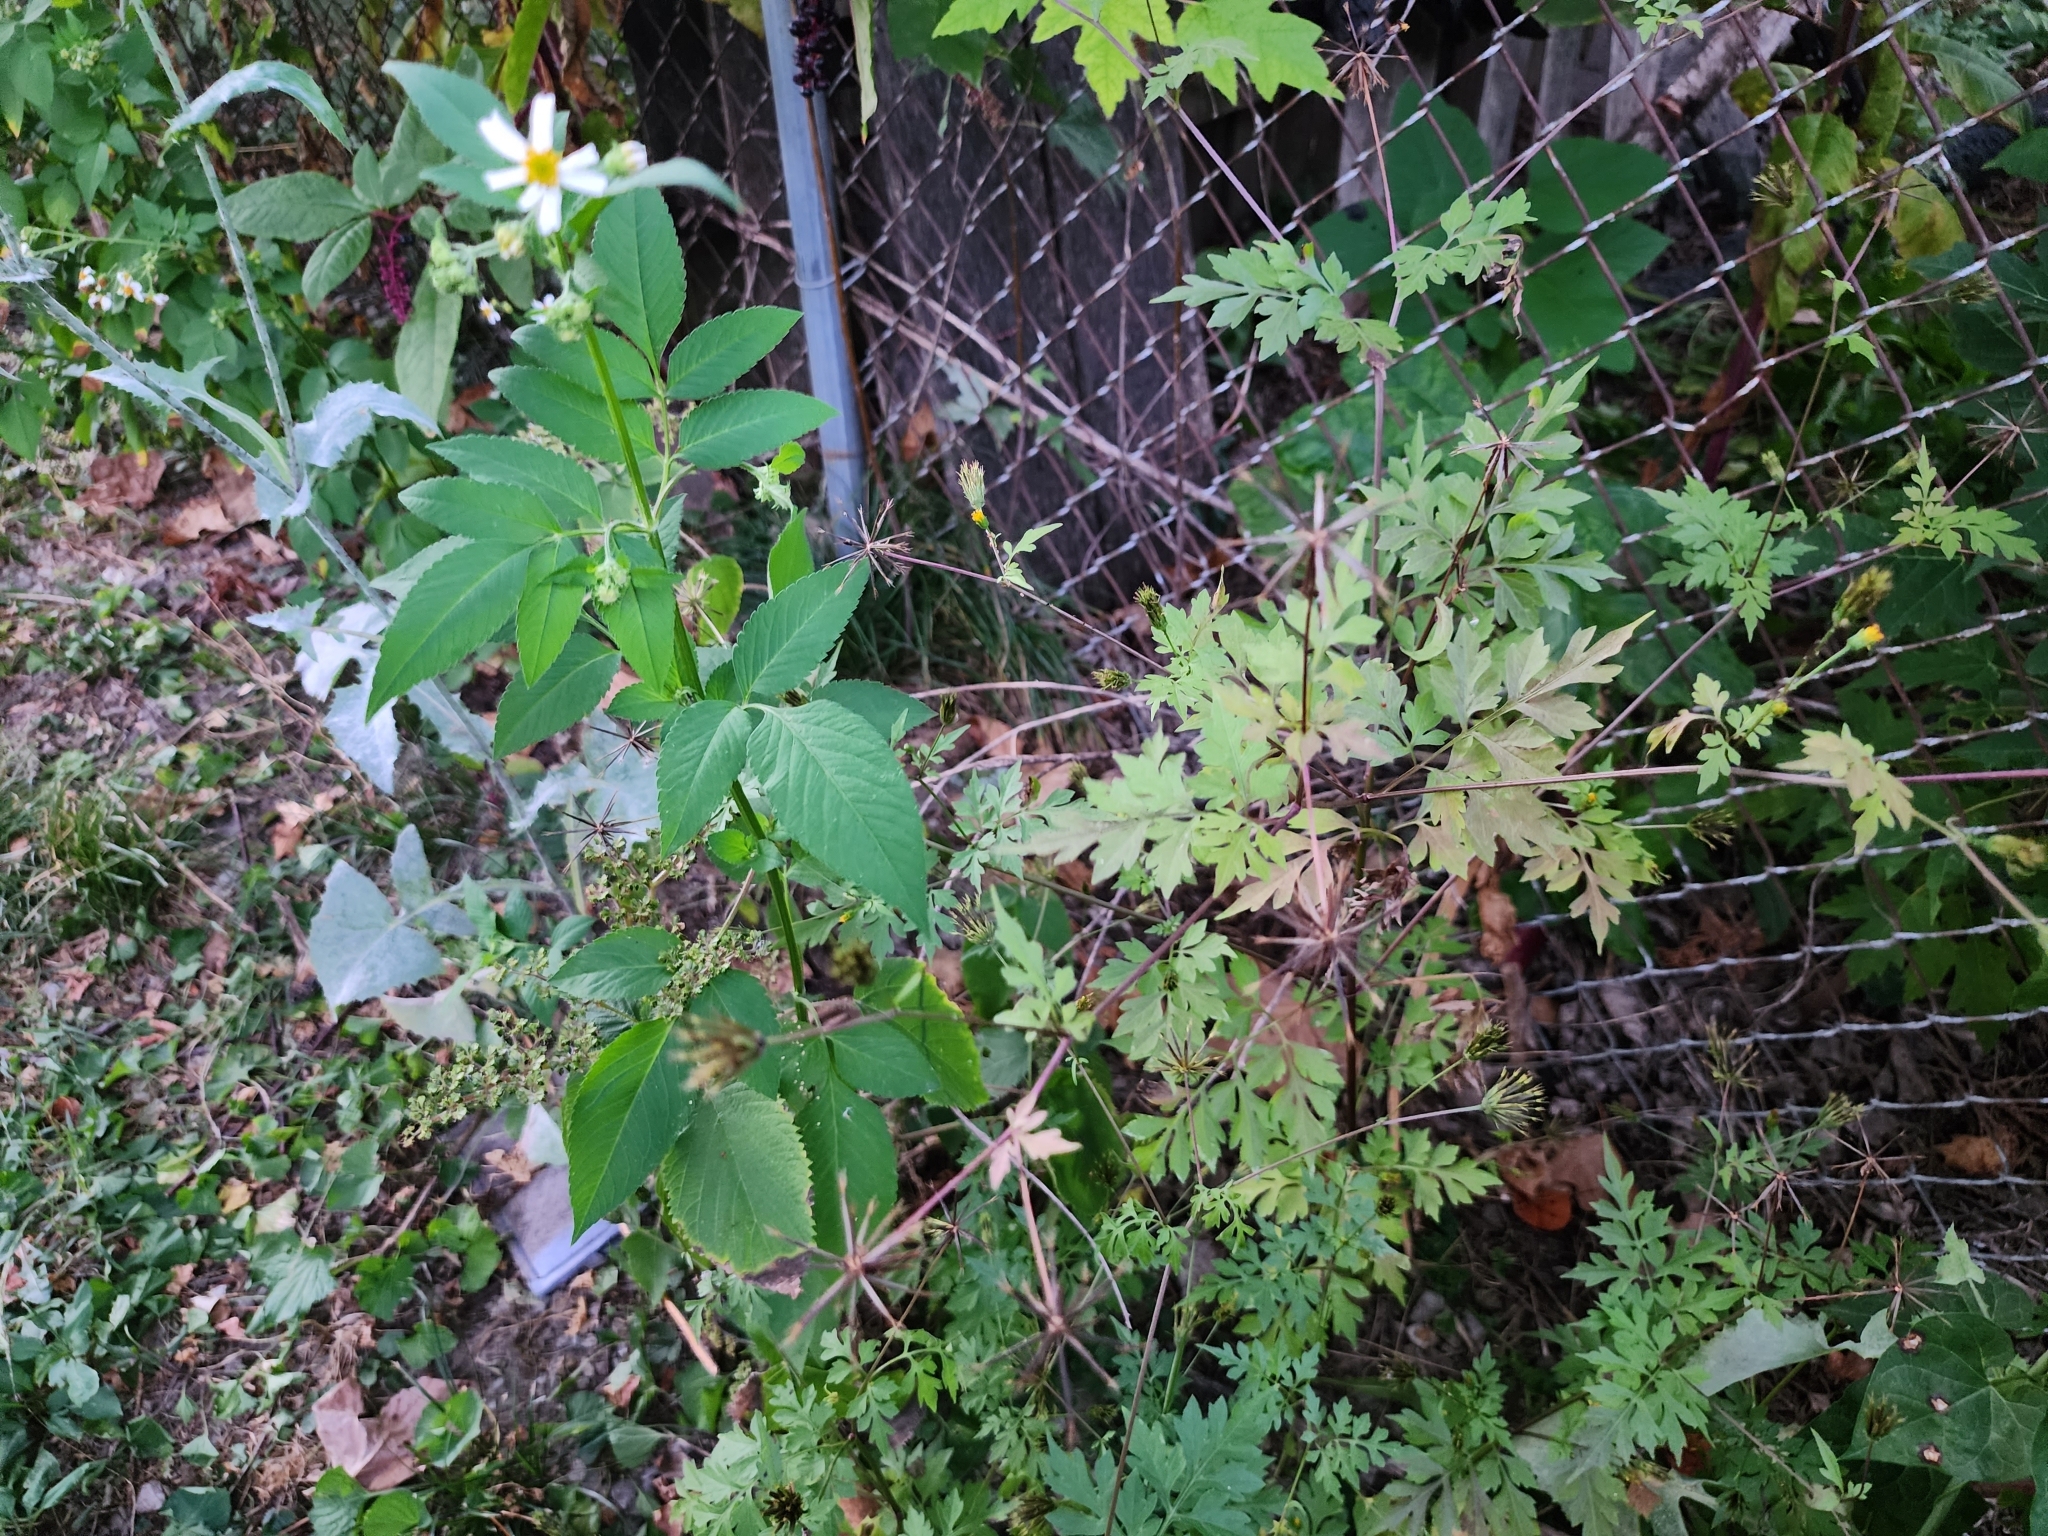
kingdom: Plantae
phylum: Tracheophyta
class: Magnoliopsida
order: Asterales
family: Asteraceae
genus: Bidens
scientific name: Bidens bipinnata
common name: Spanish-needles
